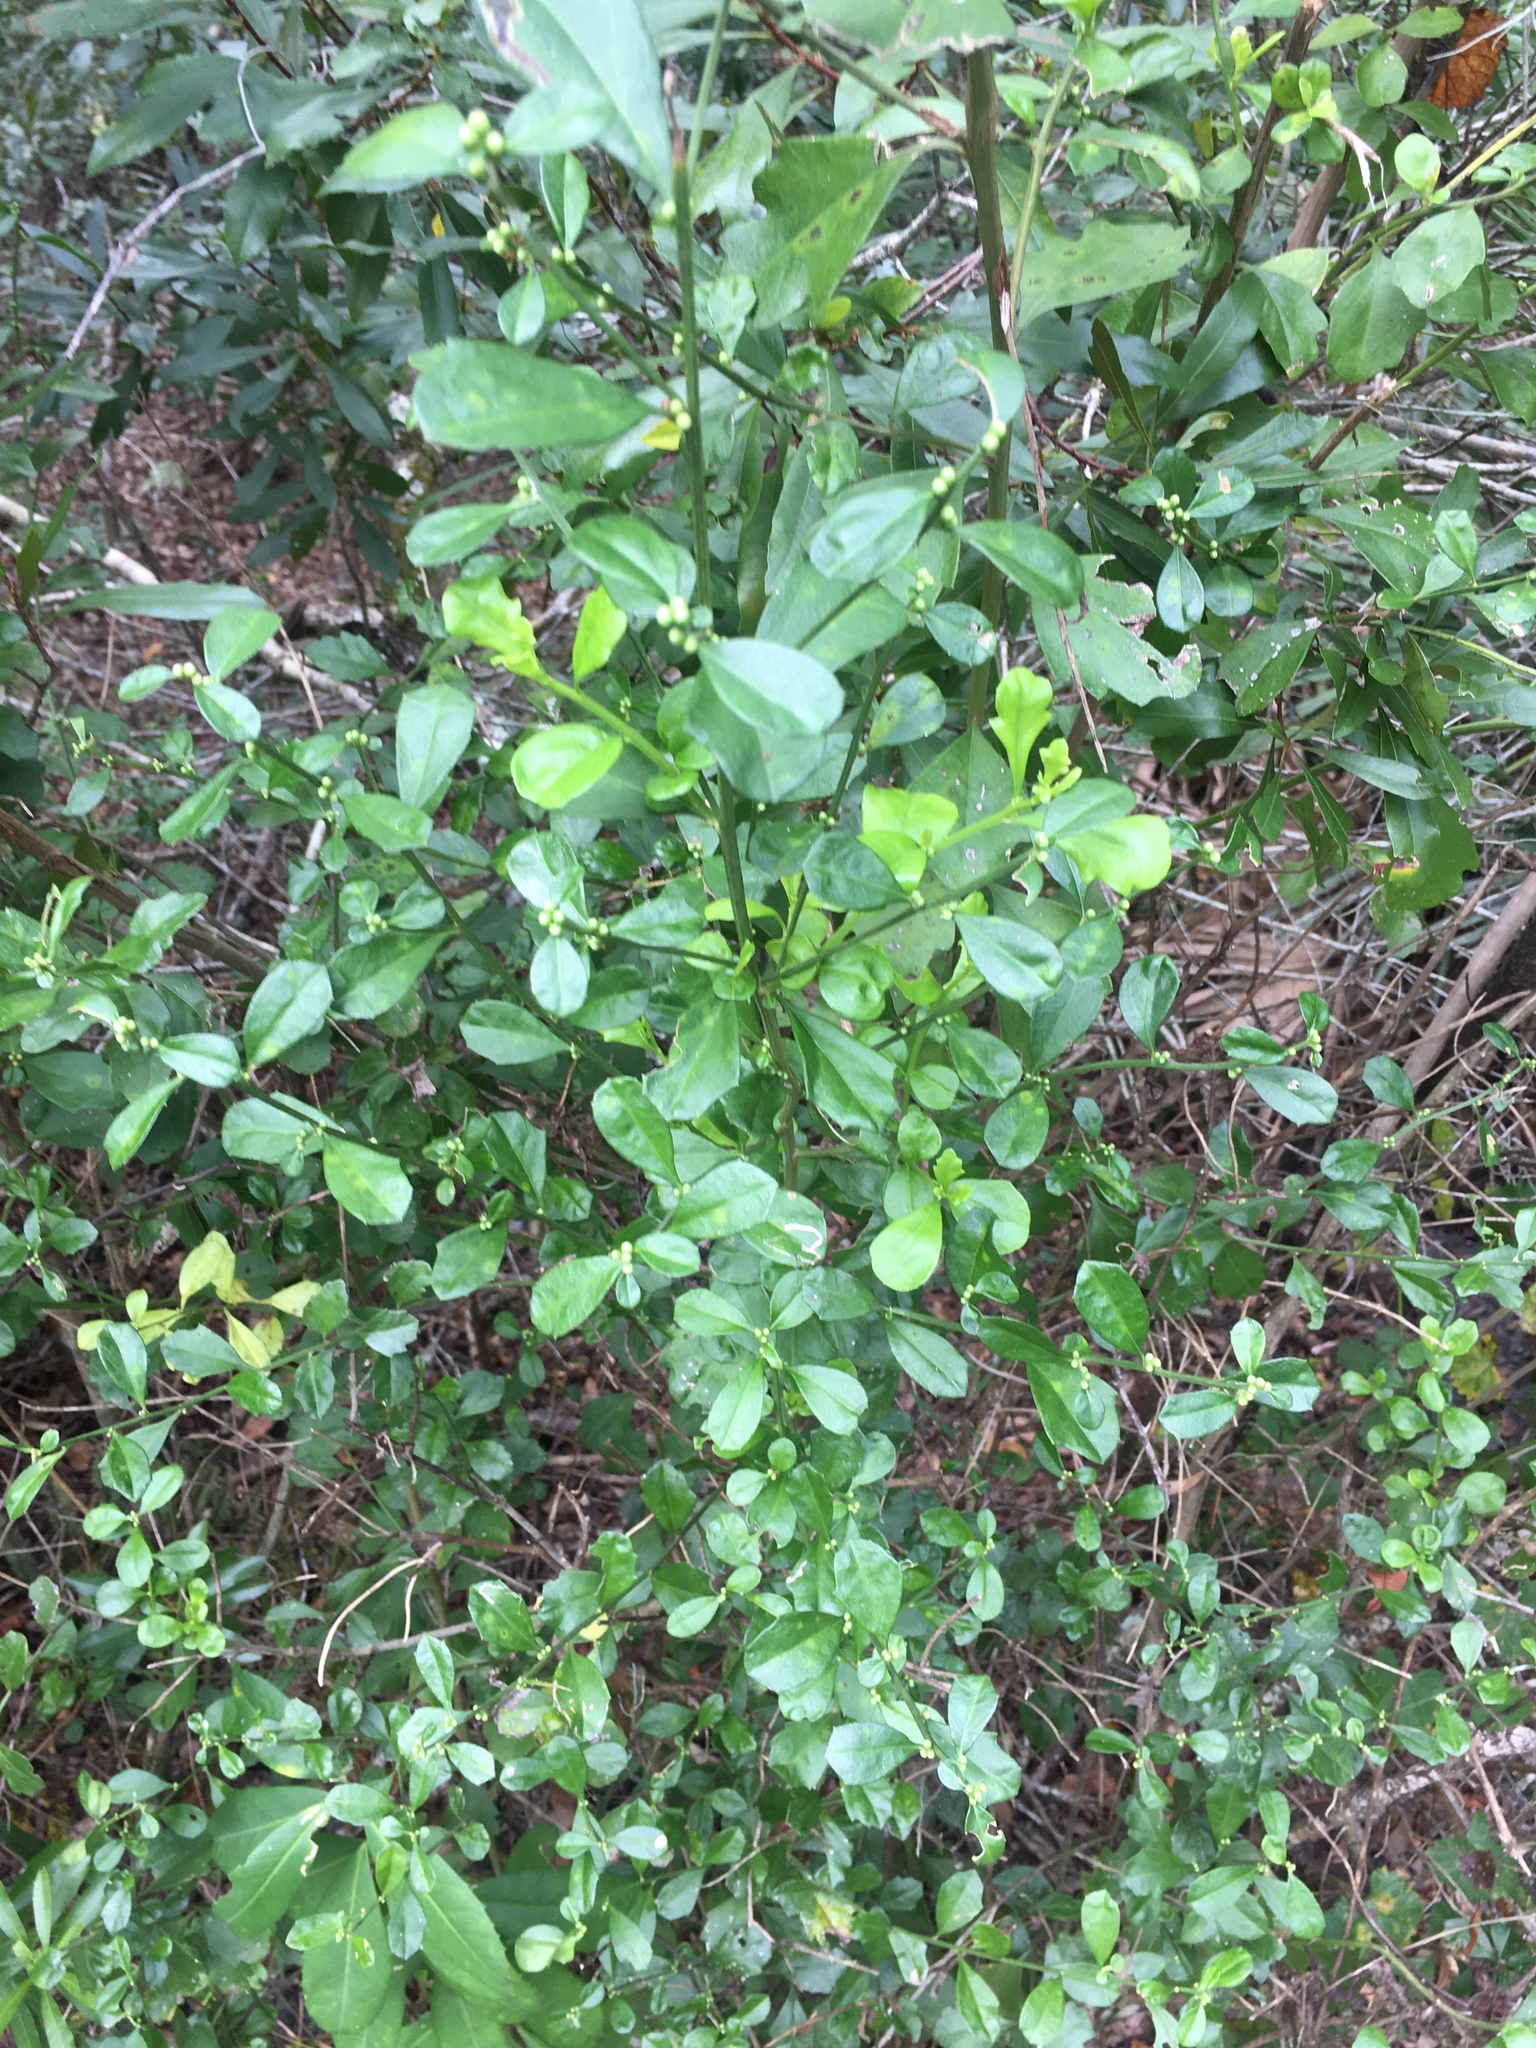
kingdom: Plantae
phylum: Tracheophyta
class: Magnoliopsida
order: Asterales
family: Asteraceae
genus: Baccharis
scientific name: Baccharis glomeruliflora
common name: Silverling groundsel bush
